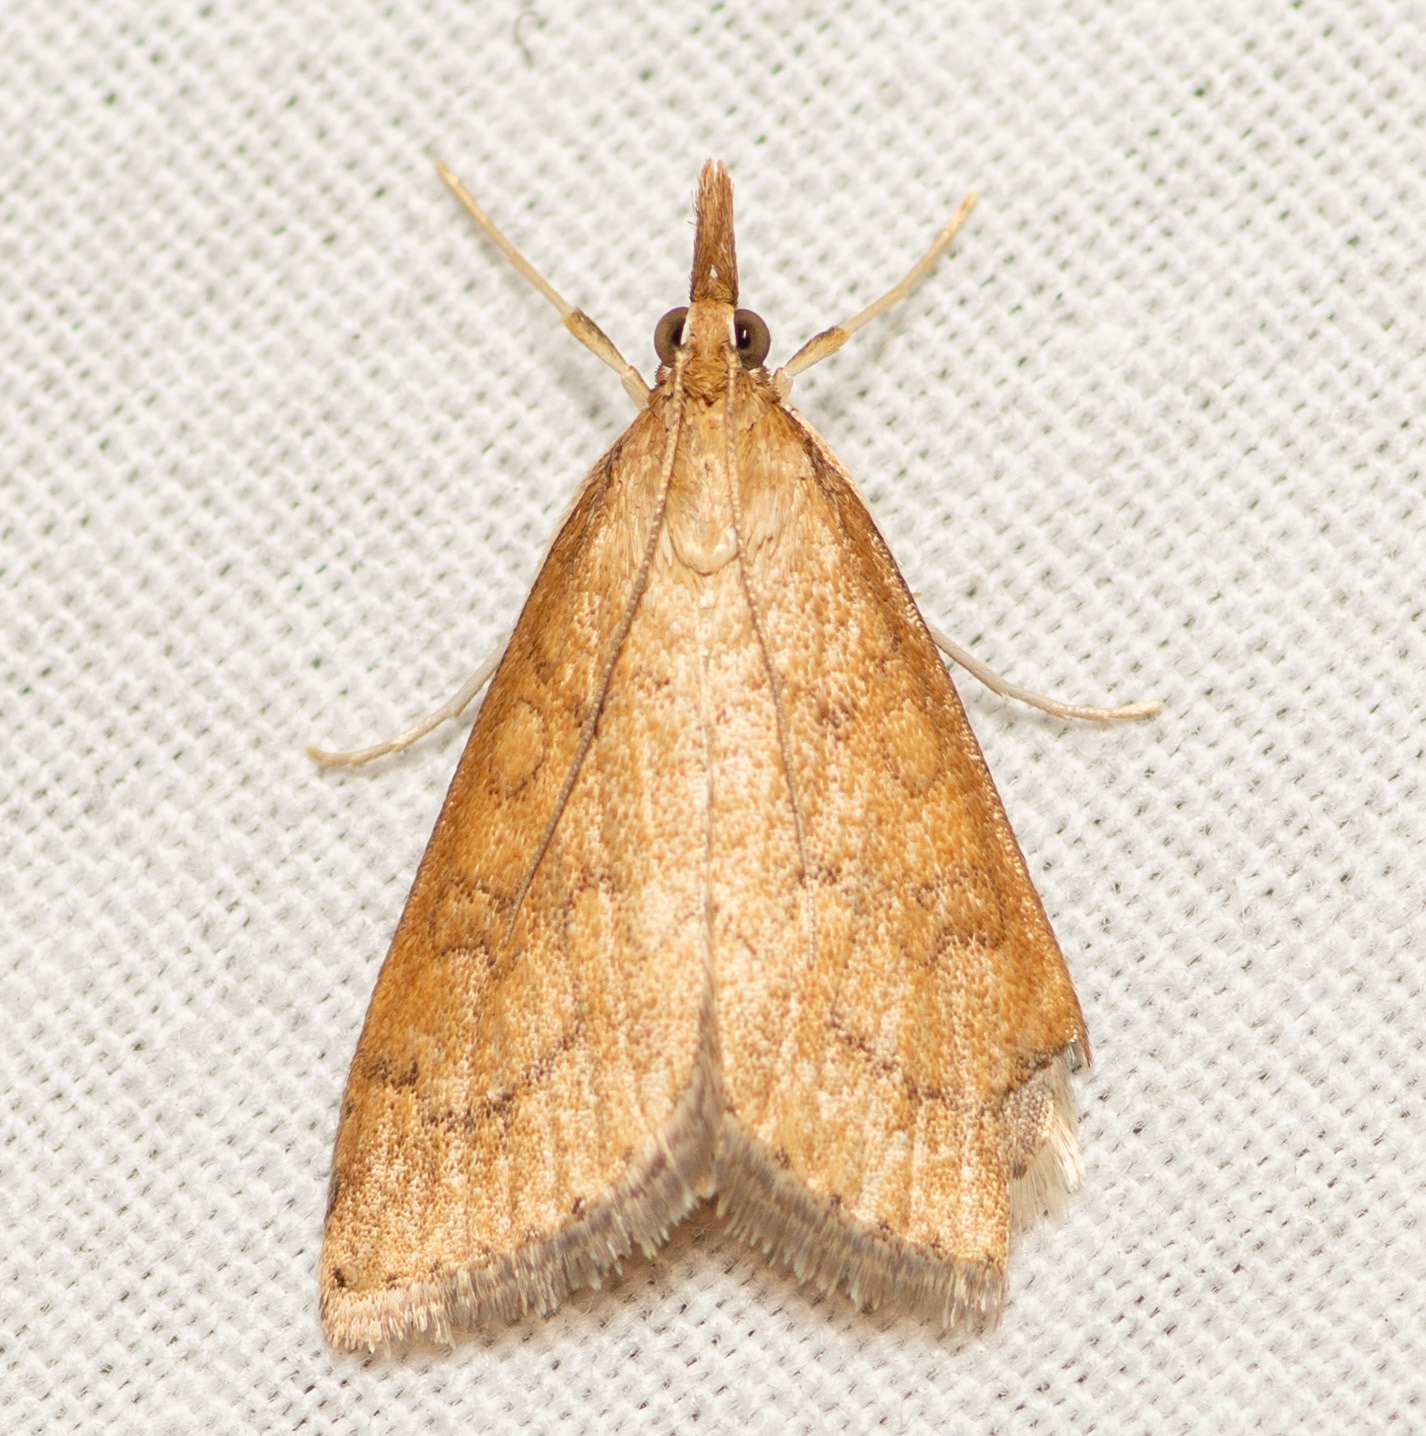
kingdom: Animalia
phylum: Arthropoda
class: Insecta
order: Lepidoptera
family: Crambidae
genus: Udea
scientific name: Udea rubigalis
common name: Celery leaftier moth
